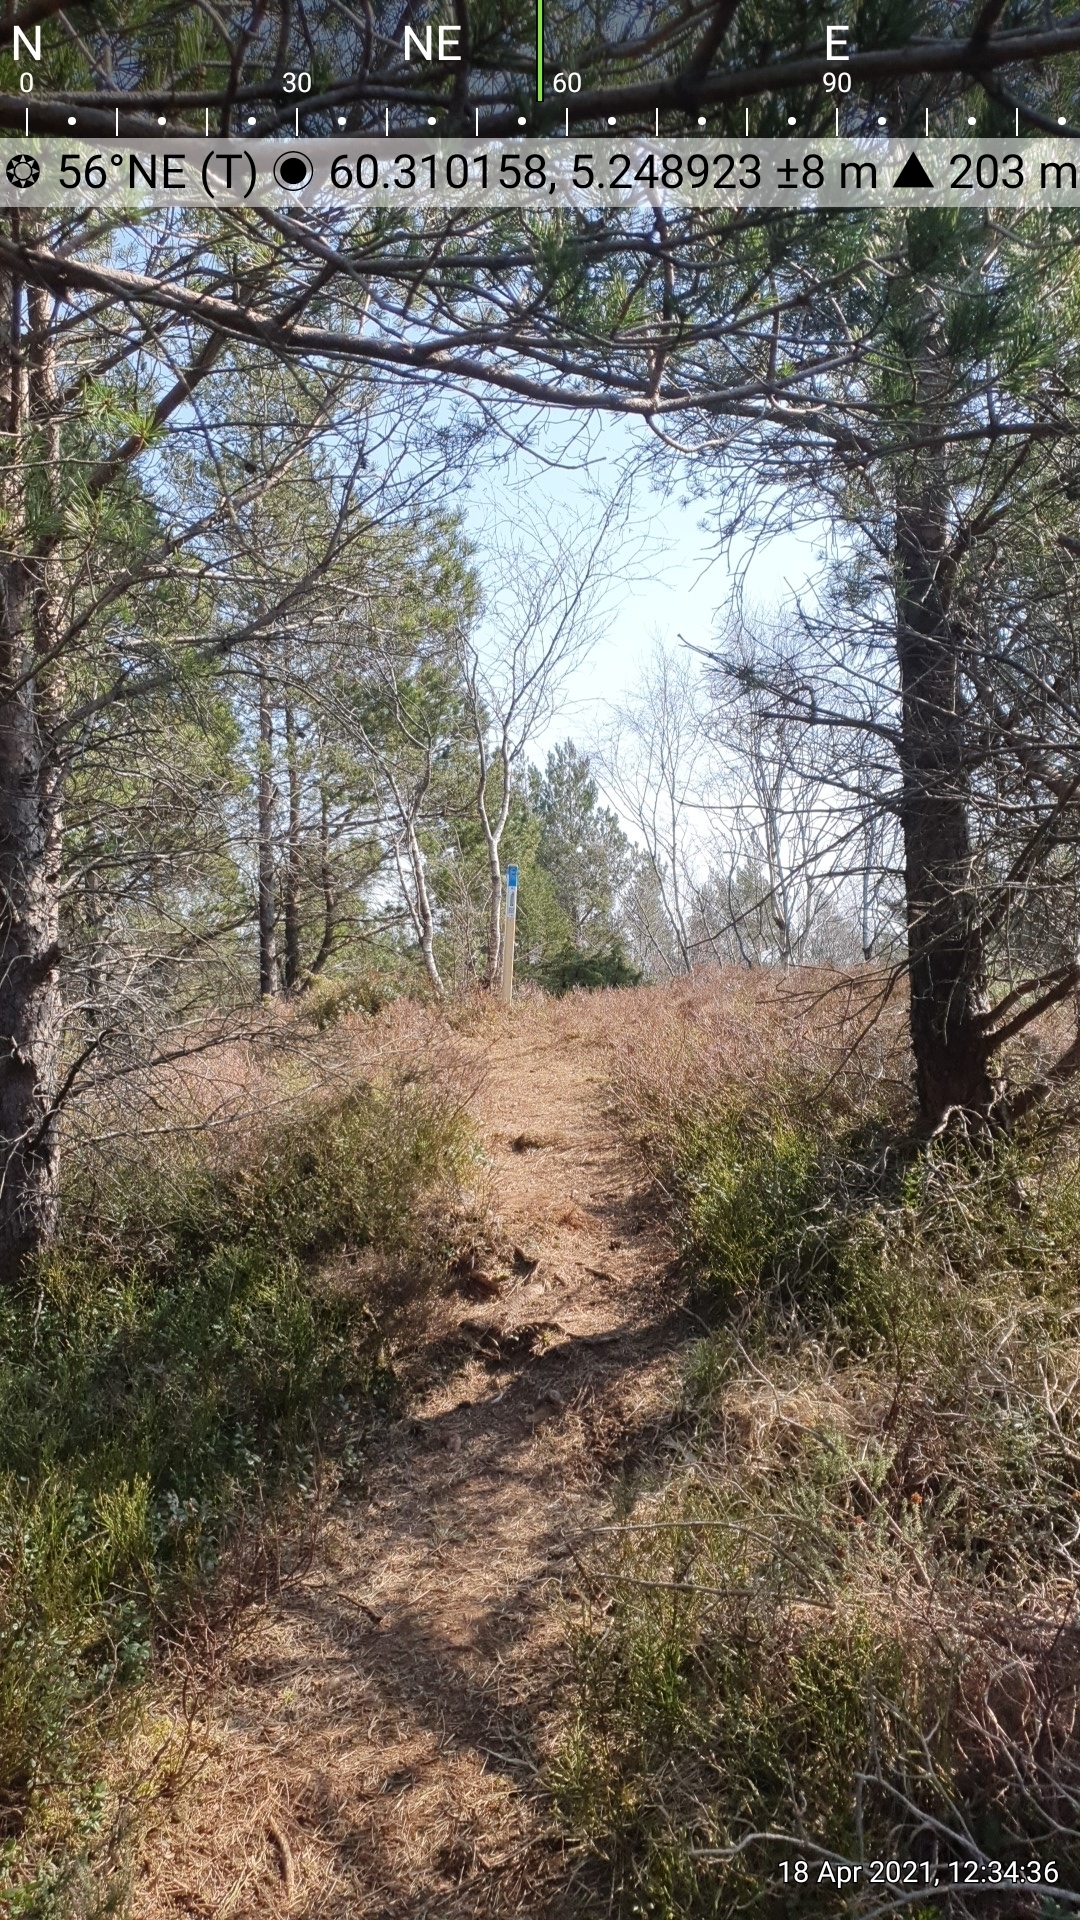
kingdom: Plantae
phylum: Tracheophyta
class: Magnoliopsida
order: Ericales
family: Ericaceae
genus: Erica
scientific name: Erica tetralix
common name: Cross-leaved heath
